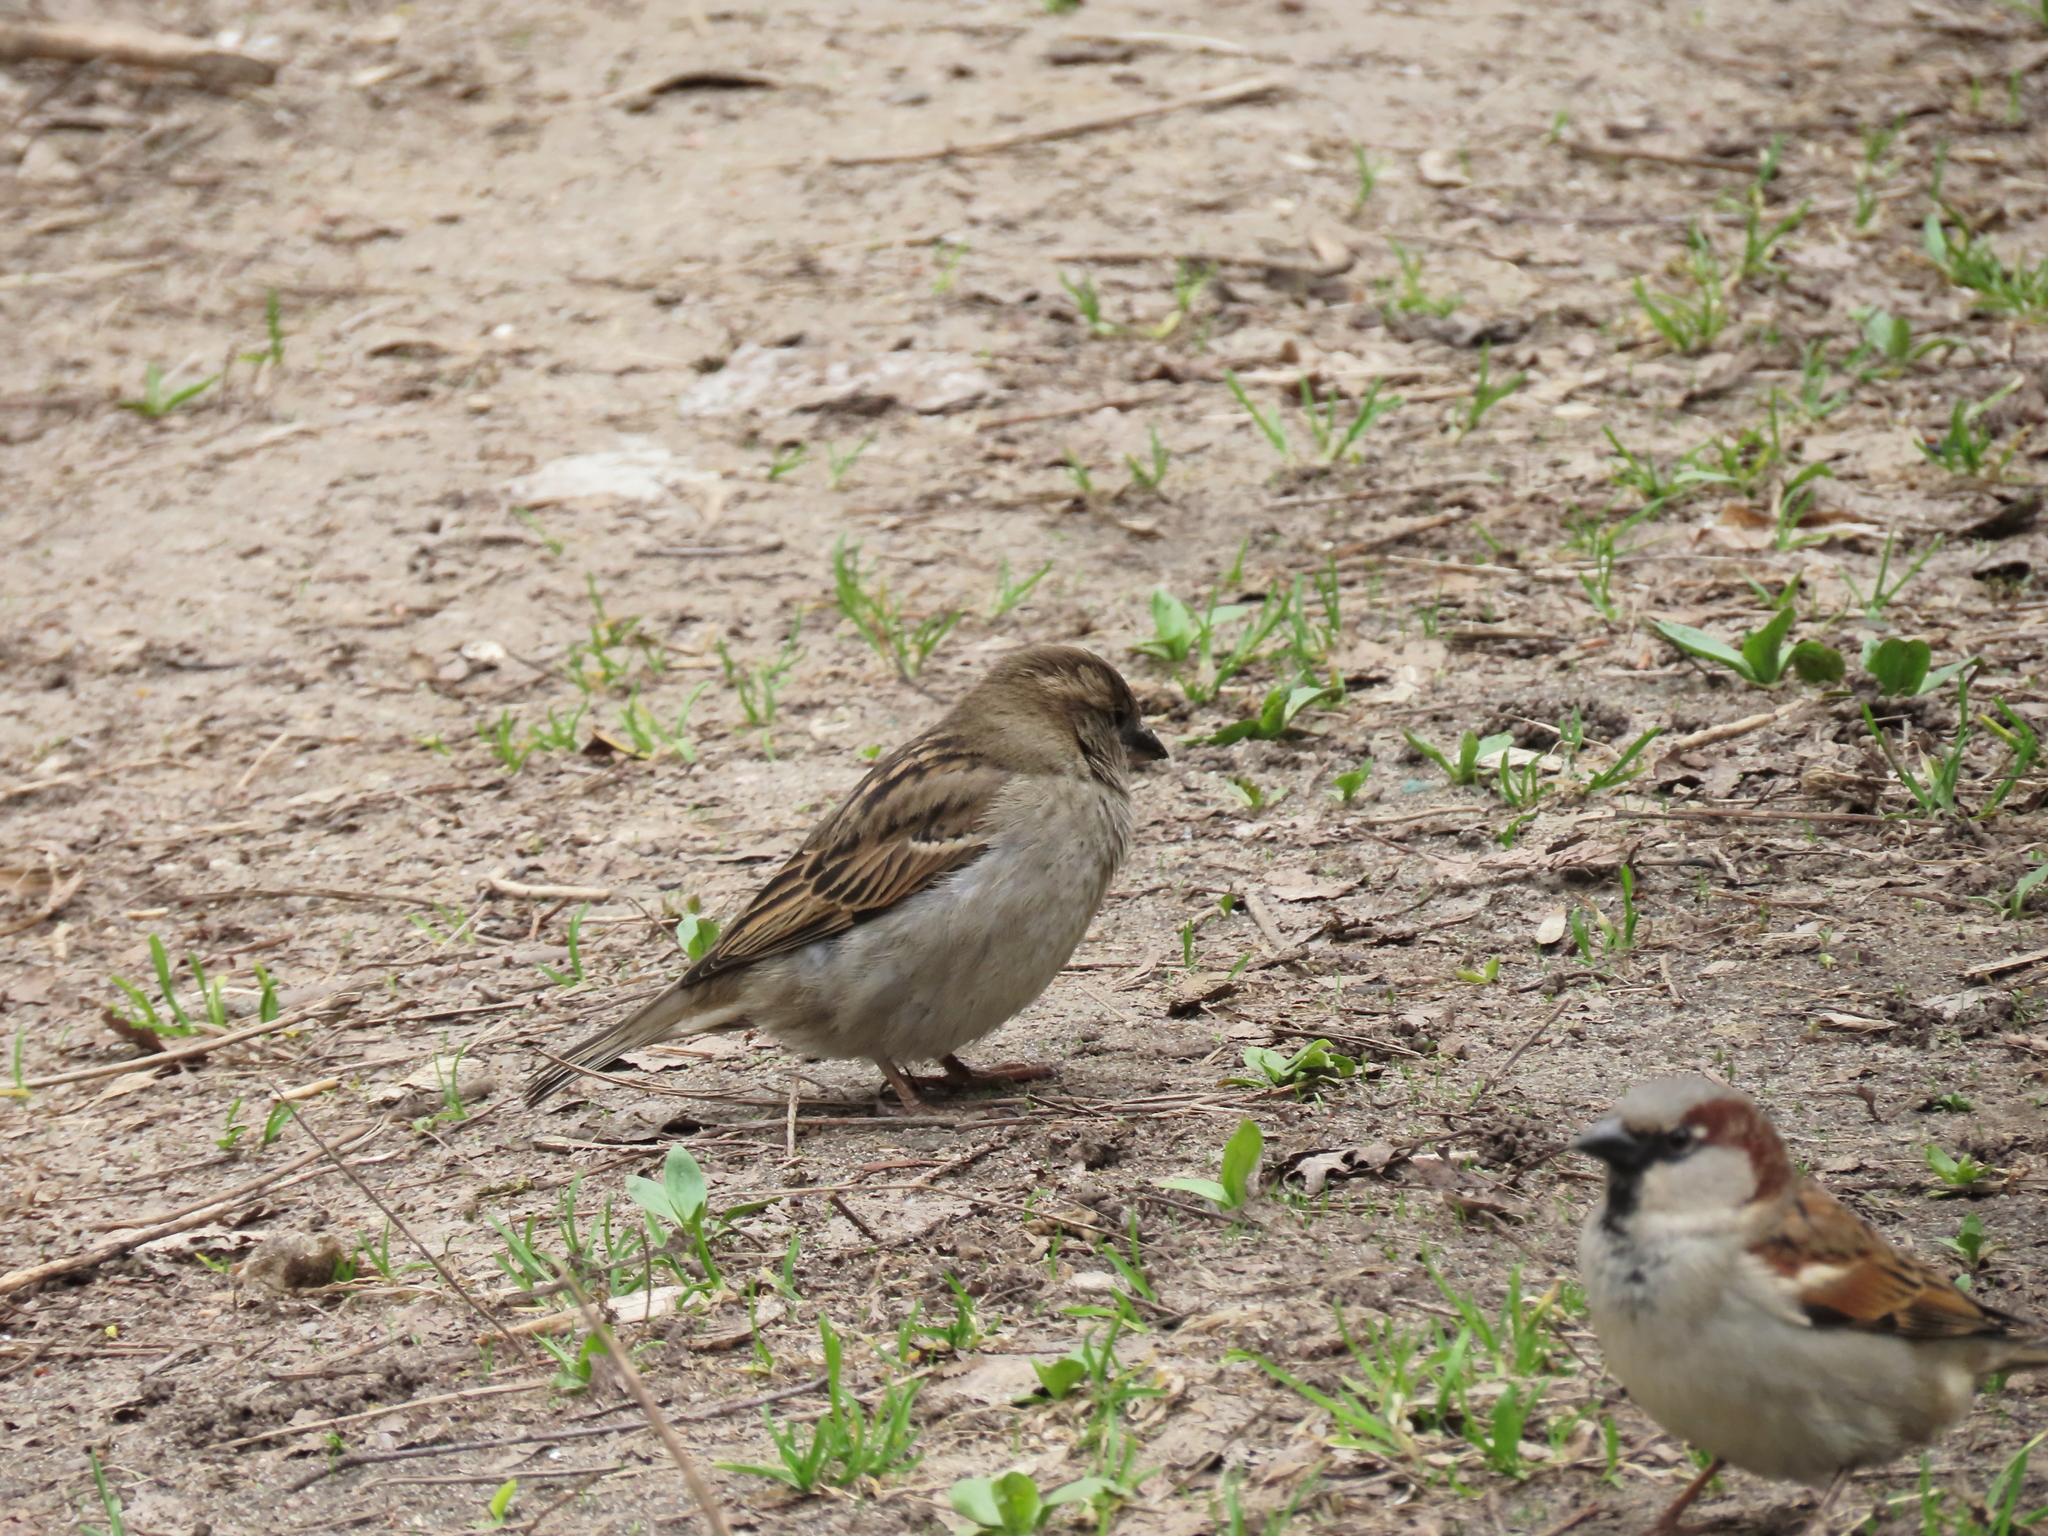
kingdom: Animalia
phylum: Chordata
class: Aves
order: Passeriformes
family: Passeridae
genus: Passer
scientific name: Passer domesticus
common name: House sparrow
